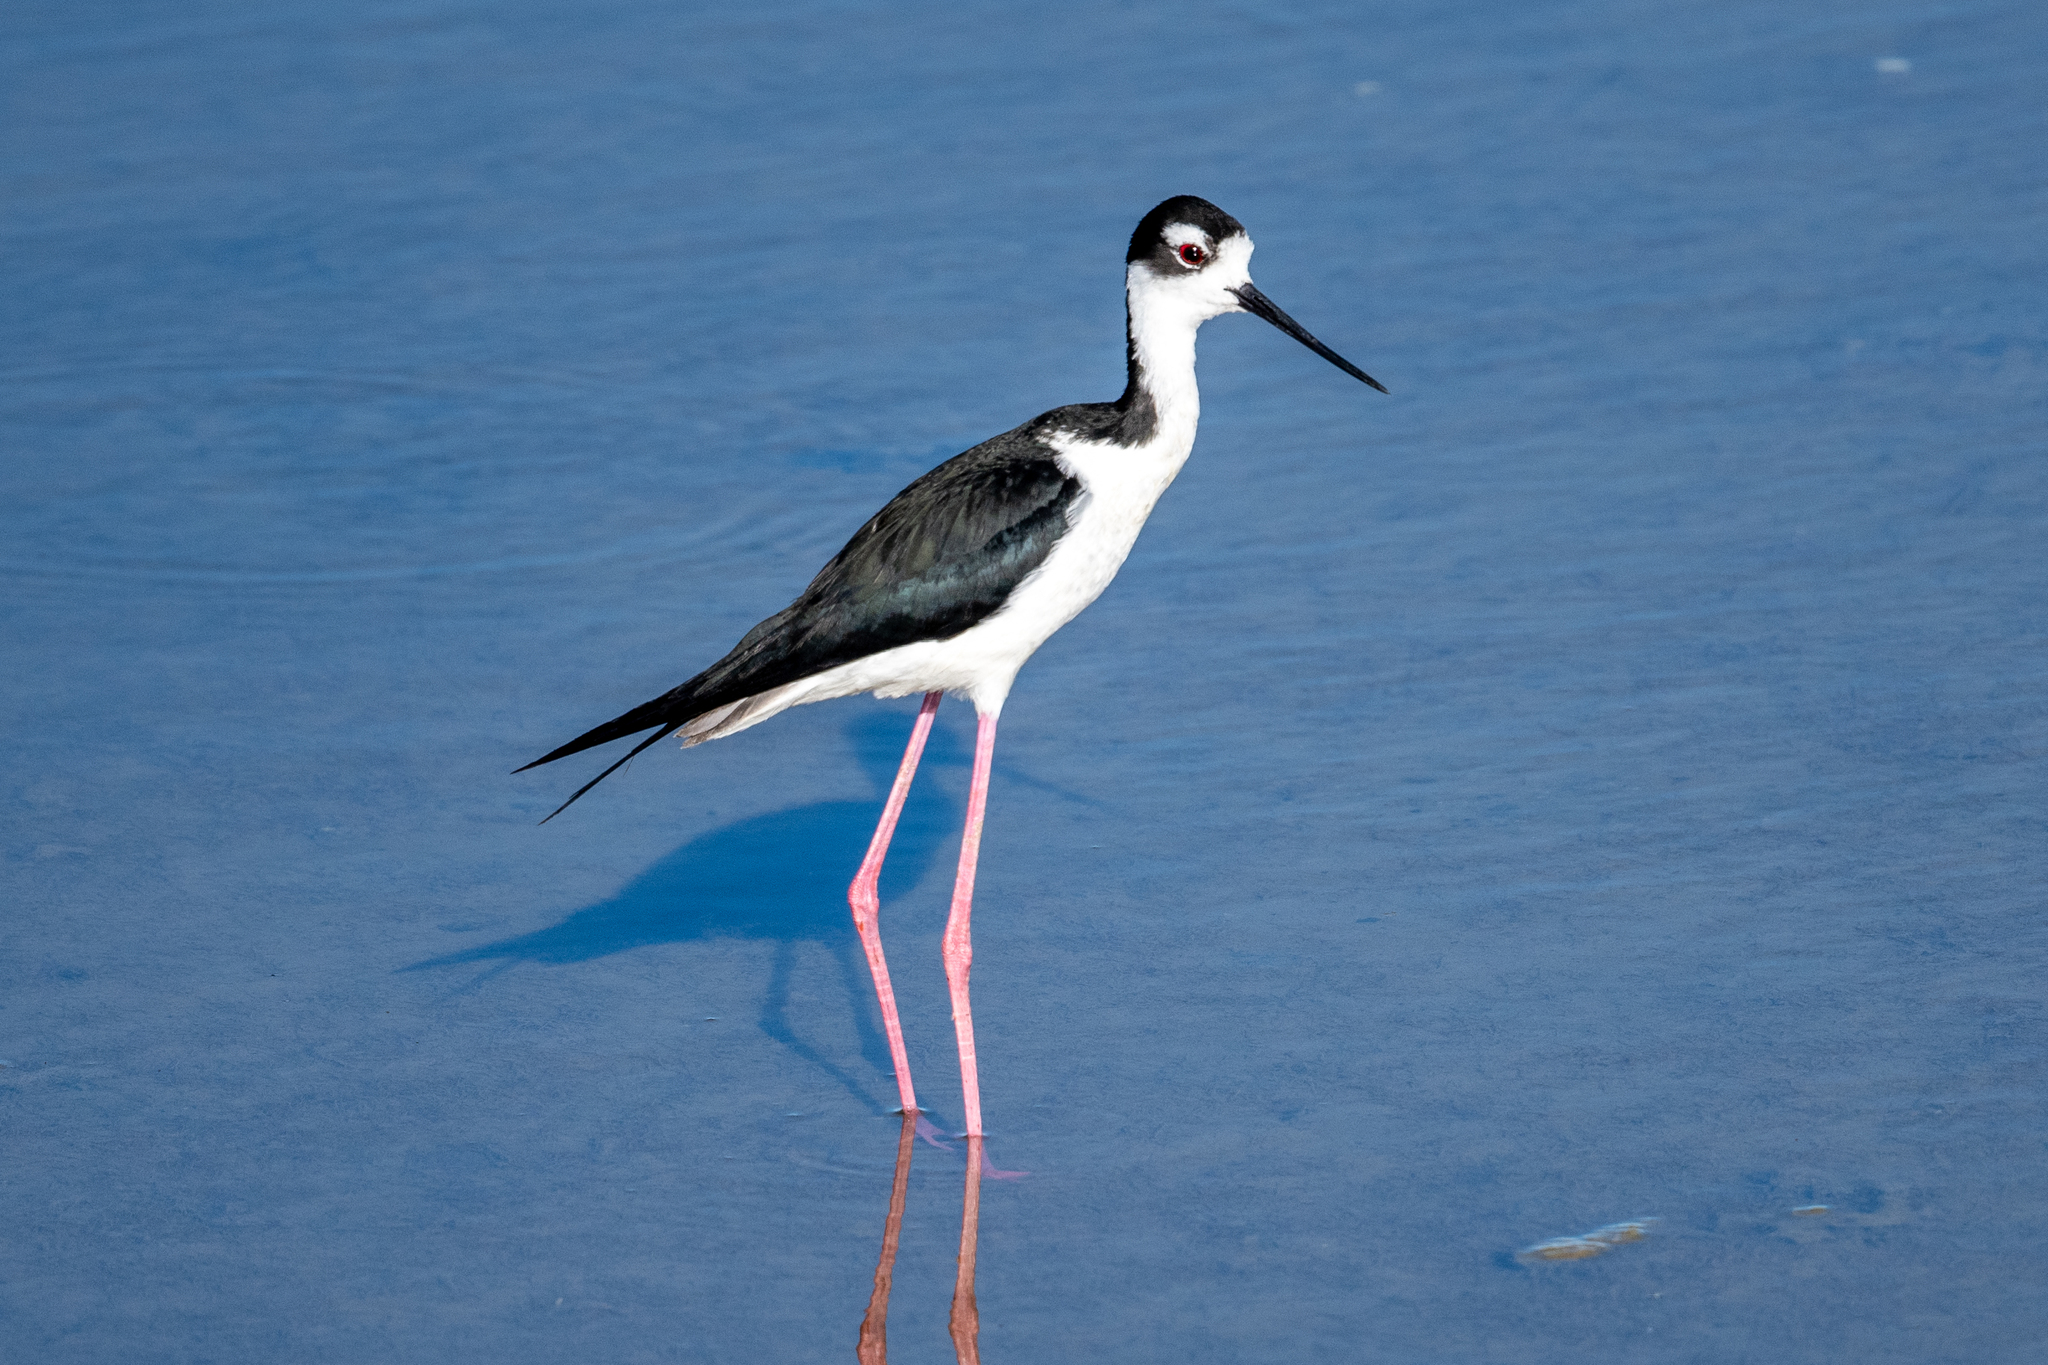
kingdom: Animalia
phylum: Chordata
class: Aves
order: Charadriiformes
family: Recurvirostridae
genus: Himantopus
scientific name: Himantopus mexicanus
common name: Black-necked stilt
